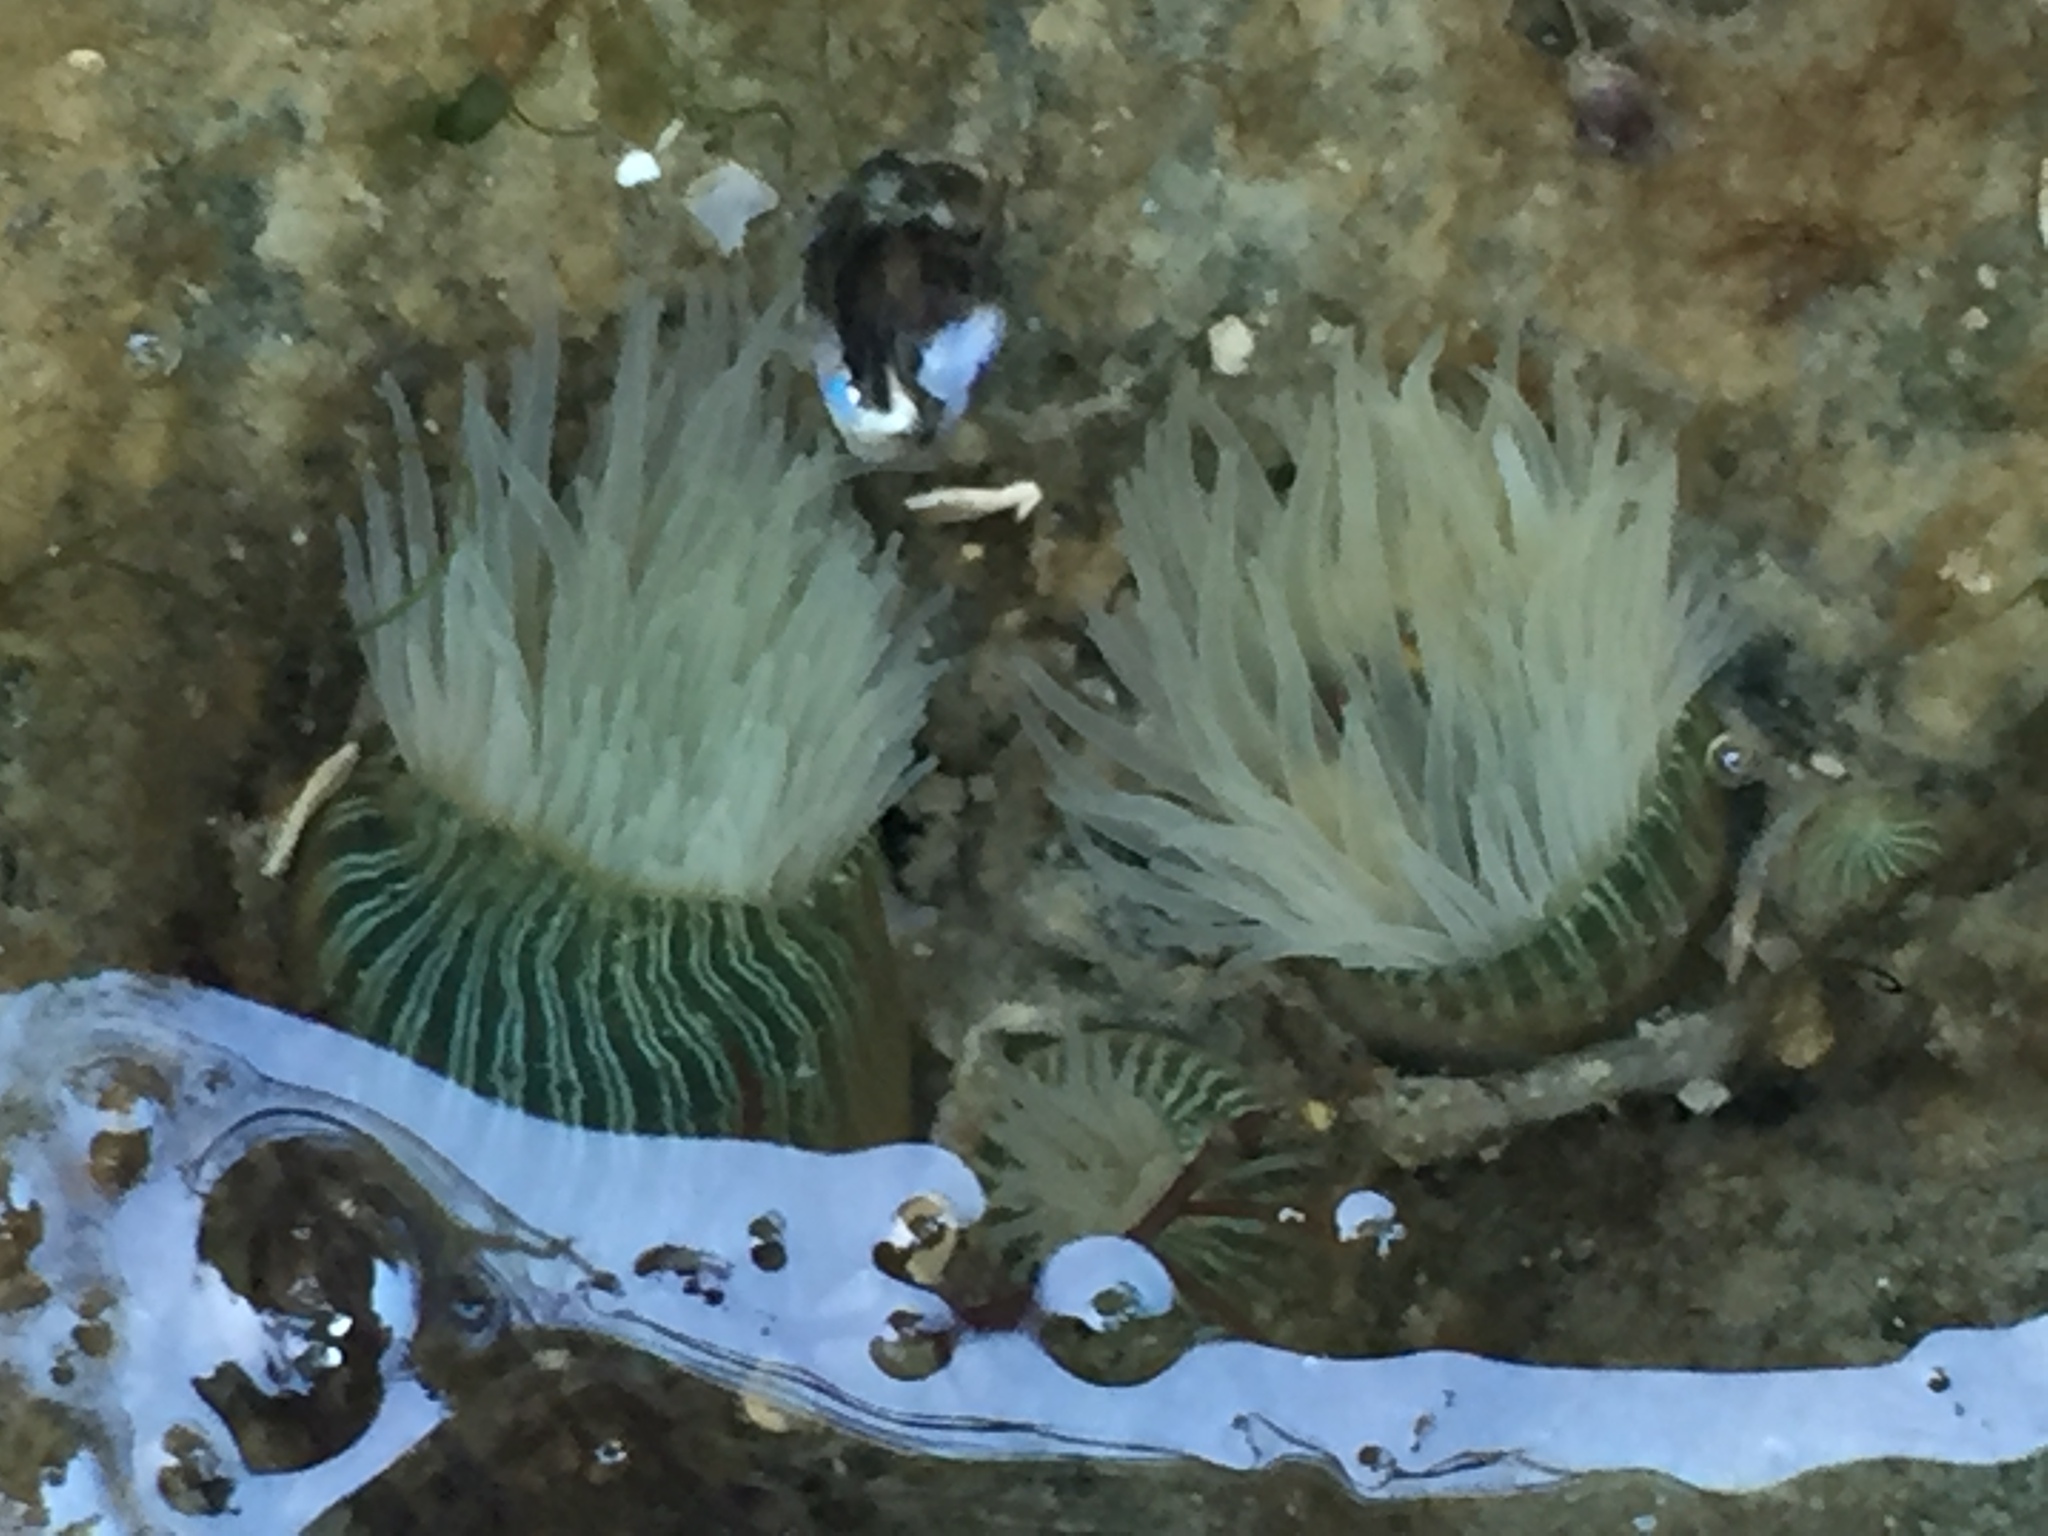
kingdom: Animalia
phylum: Cnidaria
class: Anthozoa
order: Actiniaria
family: Diadumenidae
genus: Diadumene
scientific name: Diadumene lineata
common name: Orange-striped anemone
